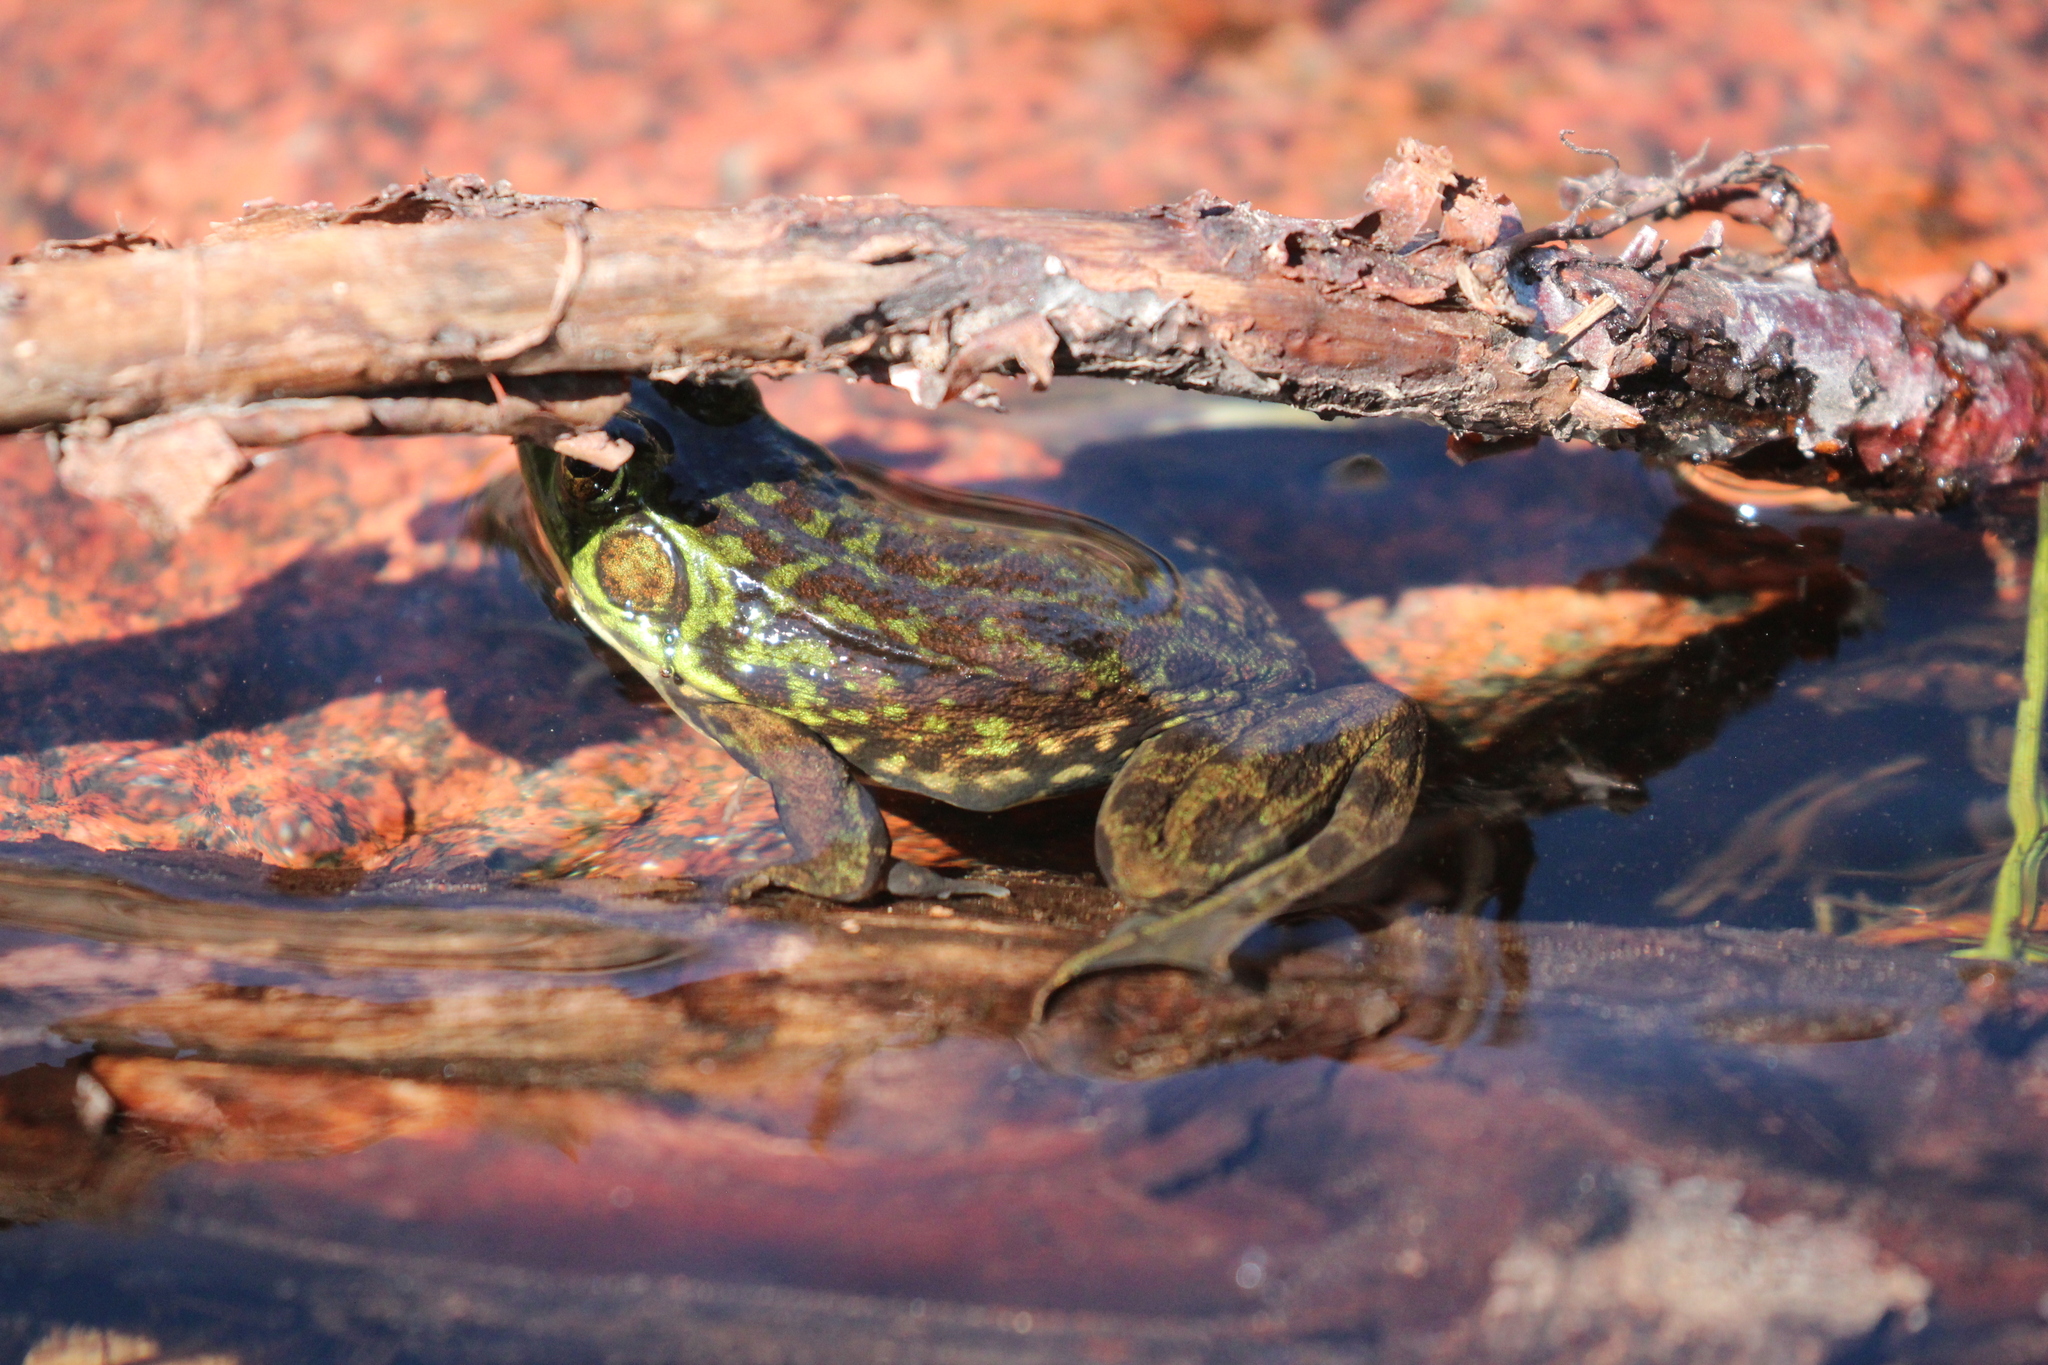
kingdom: Animalia
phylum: Chordata
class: Amphibia
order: Anura
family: Ranidae
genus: Lithobates
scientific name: Lithobates septentrionalis
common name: Mink frog
